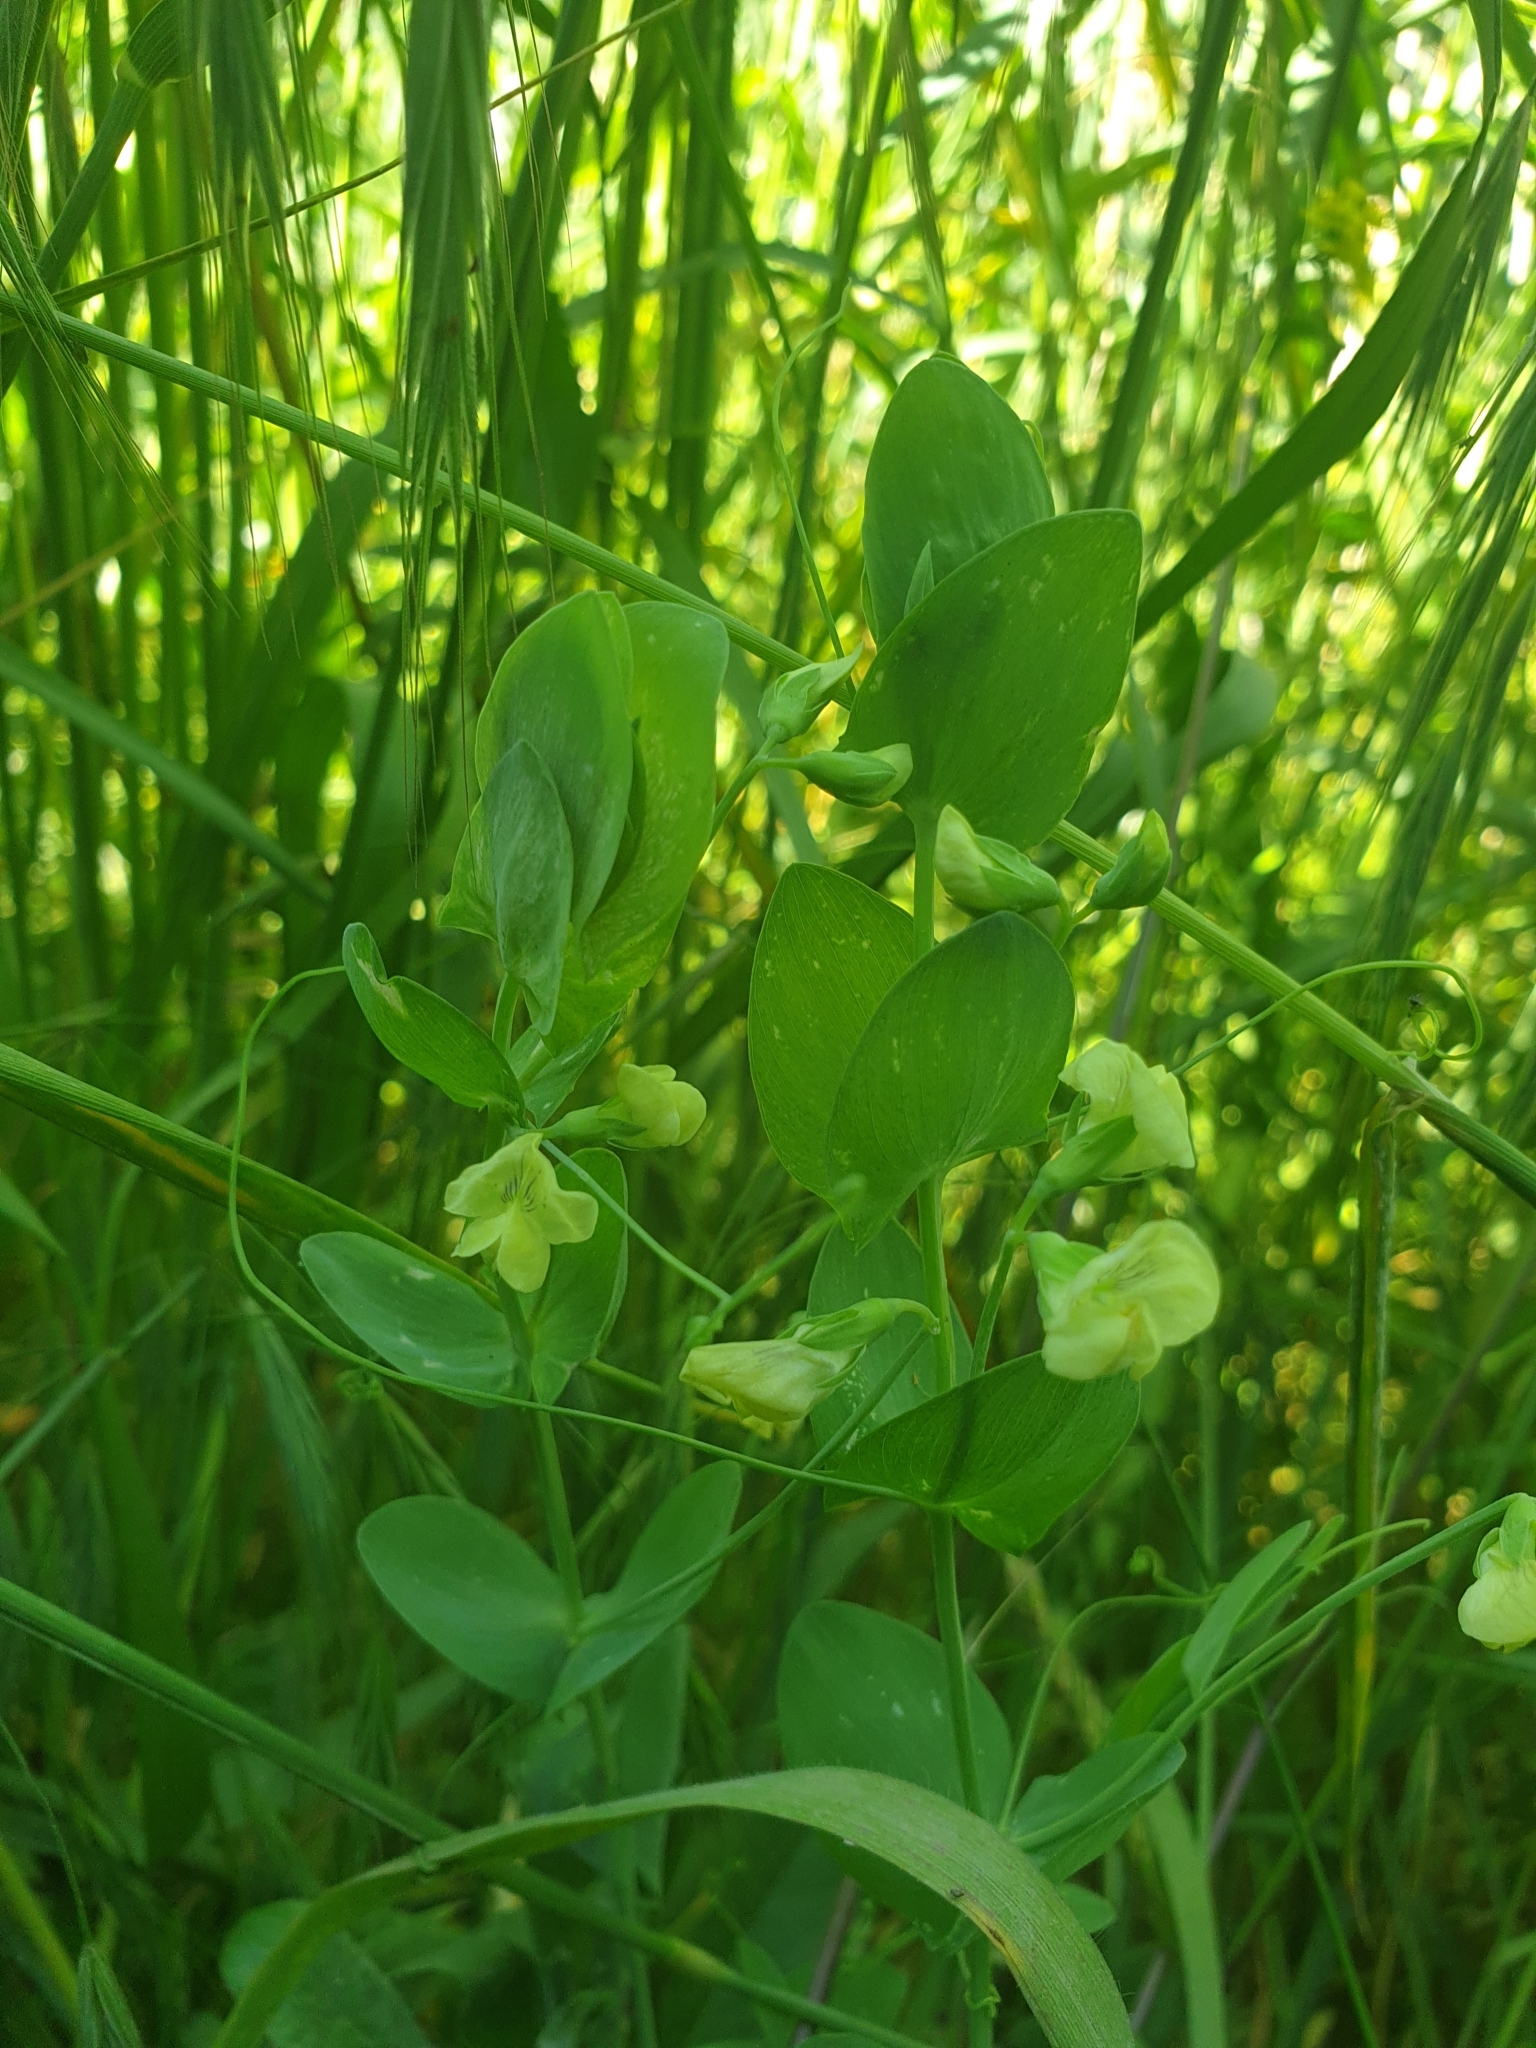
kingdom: Plantae
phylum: Tracheophyta
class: Magnoliopsida
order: Fabales
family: Fabaceae
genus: Lathyrus
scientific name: Lathyrus aphaca
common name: Yellow vetchling
